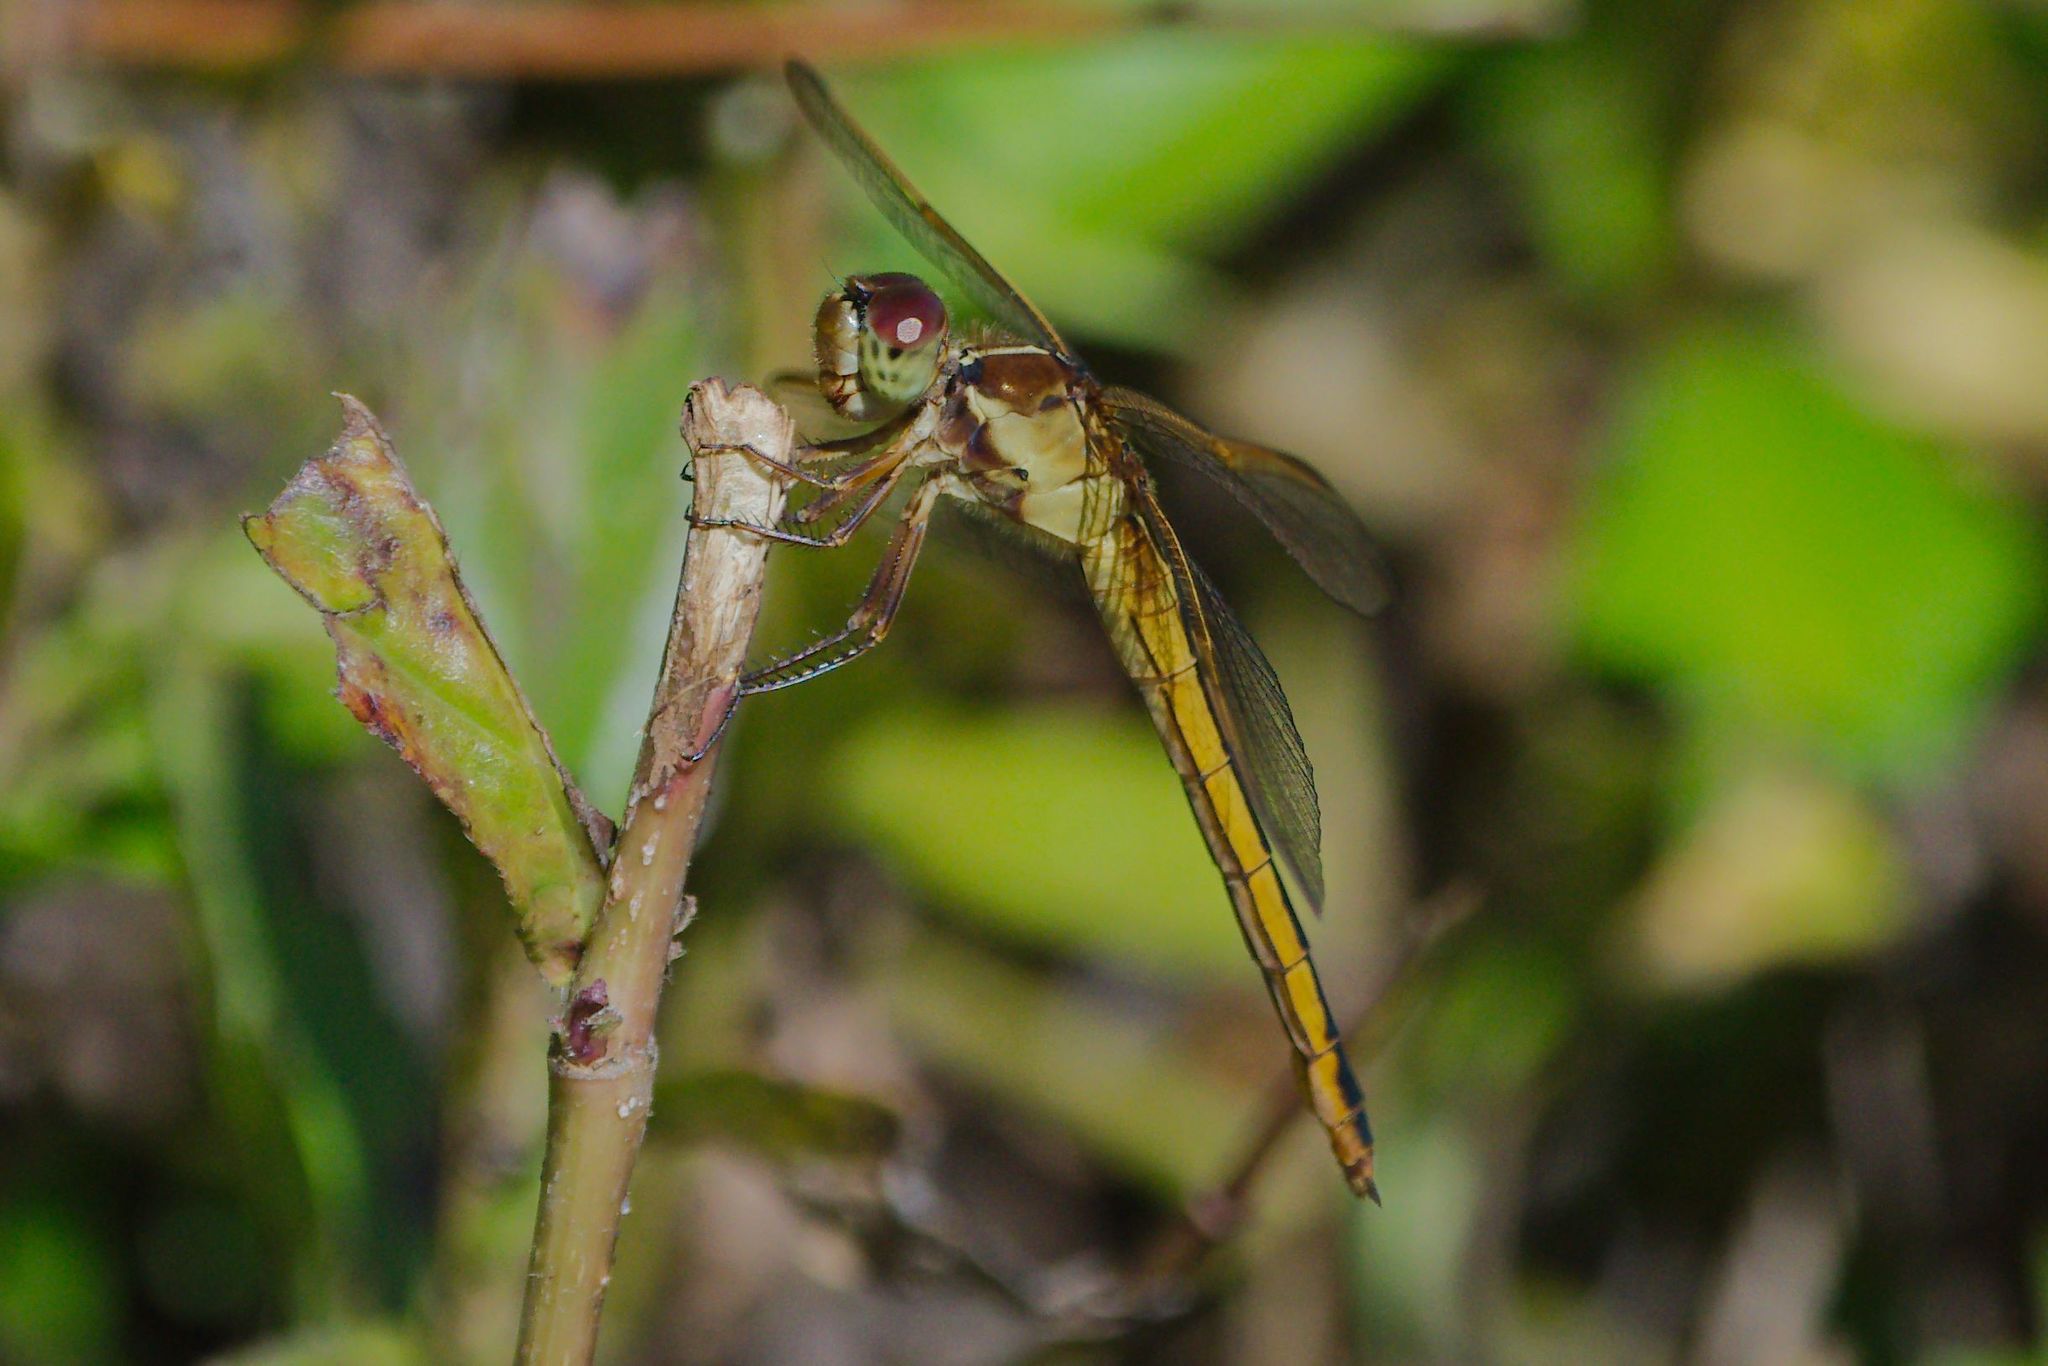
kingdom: Animalia
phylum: Arthropoda
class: Insecta
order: Odonata
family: Libellulidae
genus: Libellula
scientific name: Libellula needhami
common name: Needham's skimmer
